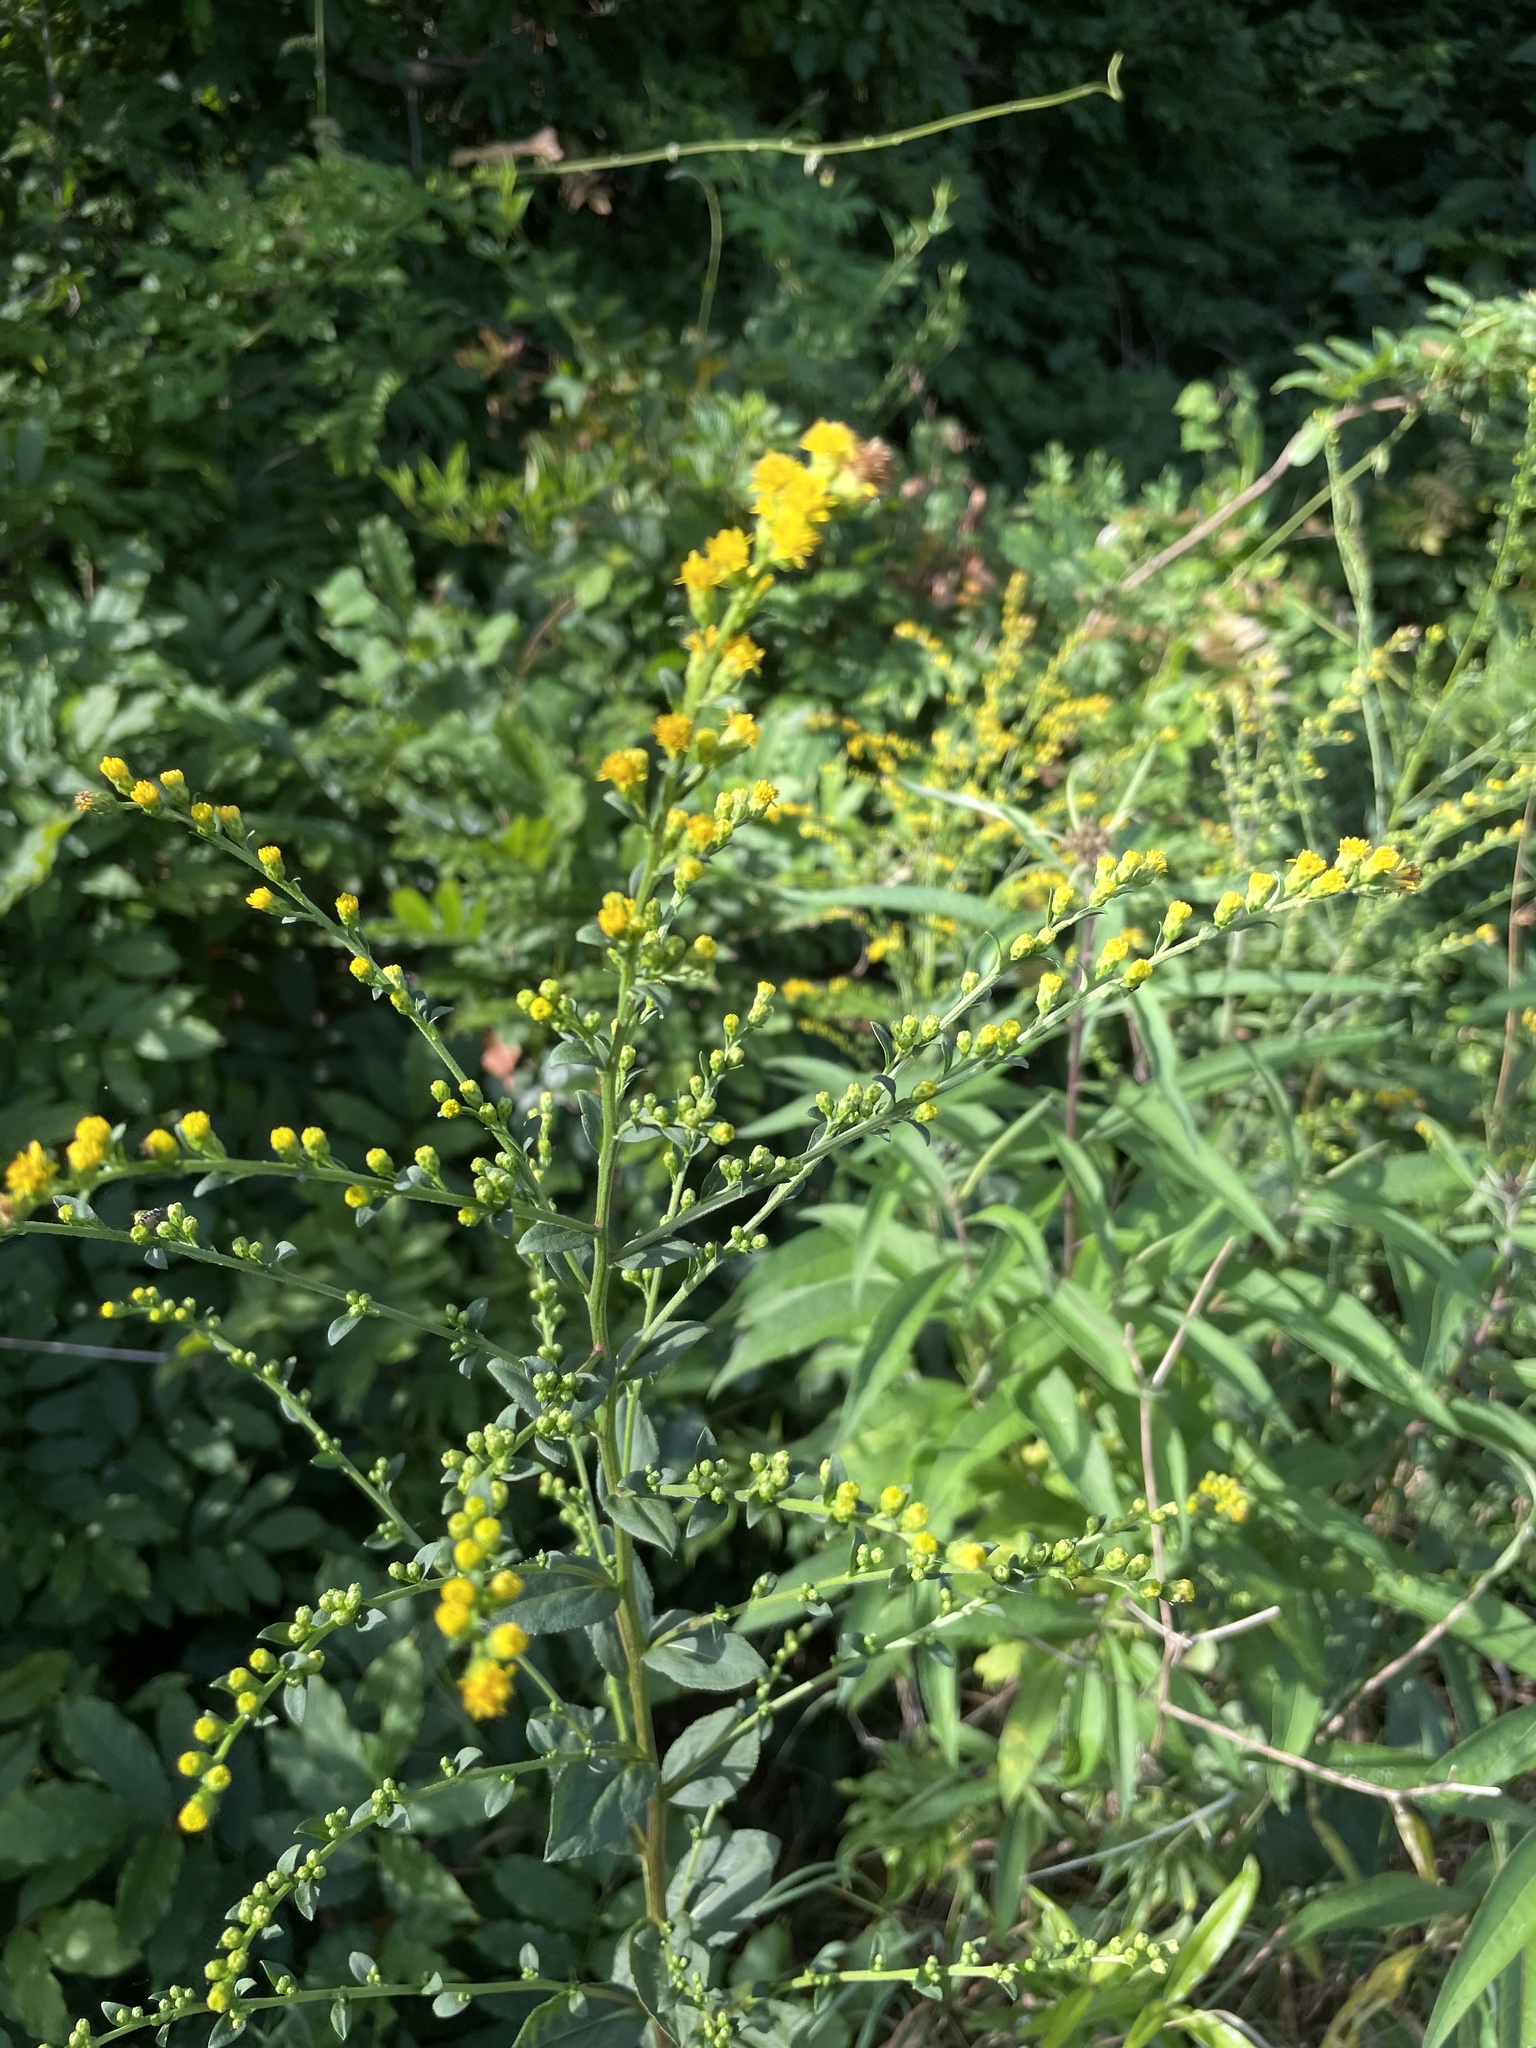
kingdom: Plantae
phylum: Tracheophyta
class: Magnoliopsida
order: Asterales
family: Asteraceae
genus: Solidago
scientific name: Solidago patula
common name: Rough-leaf goldenrod
